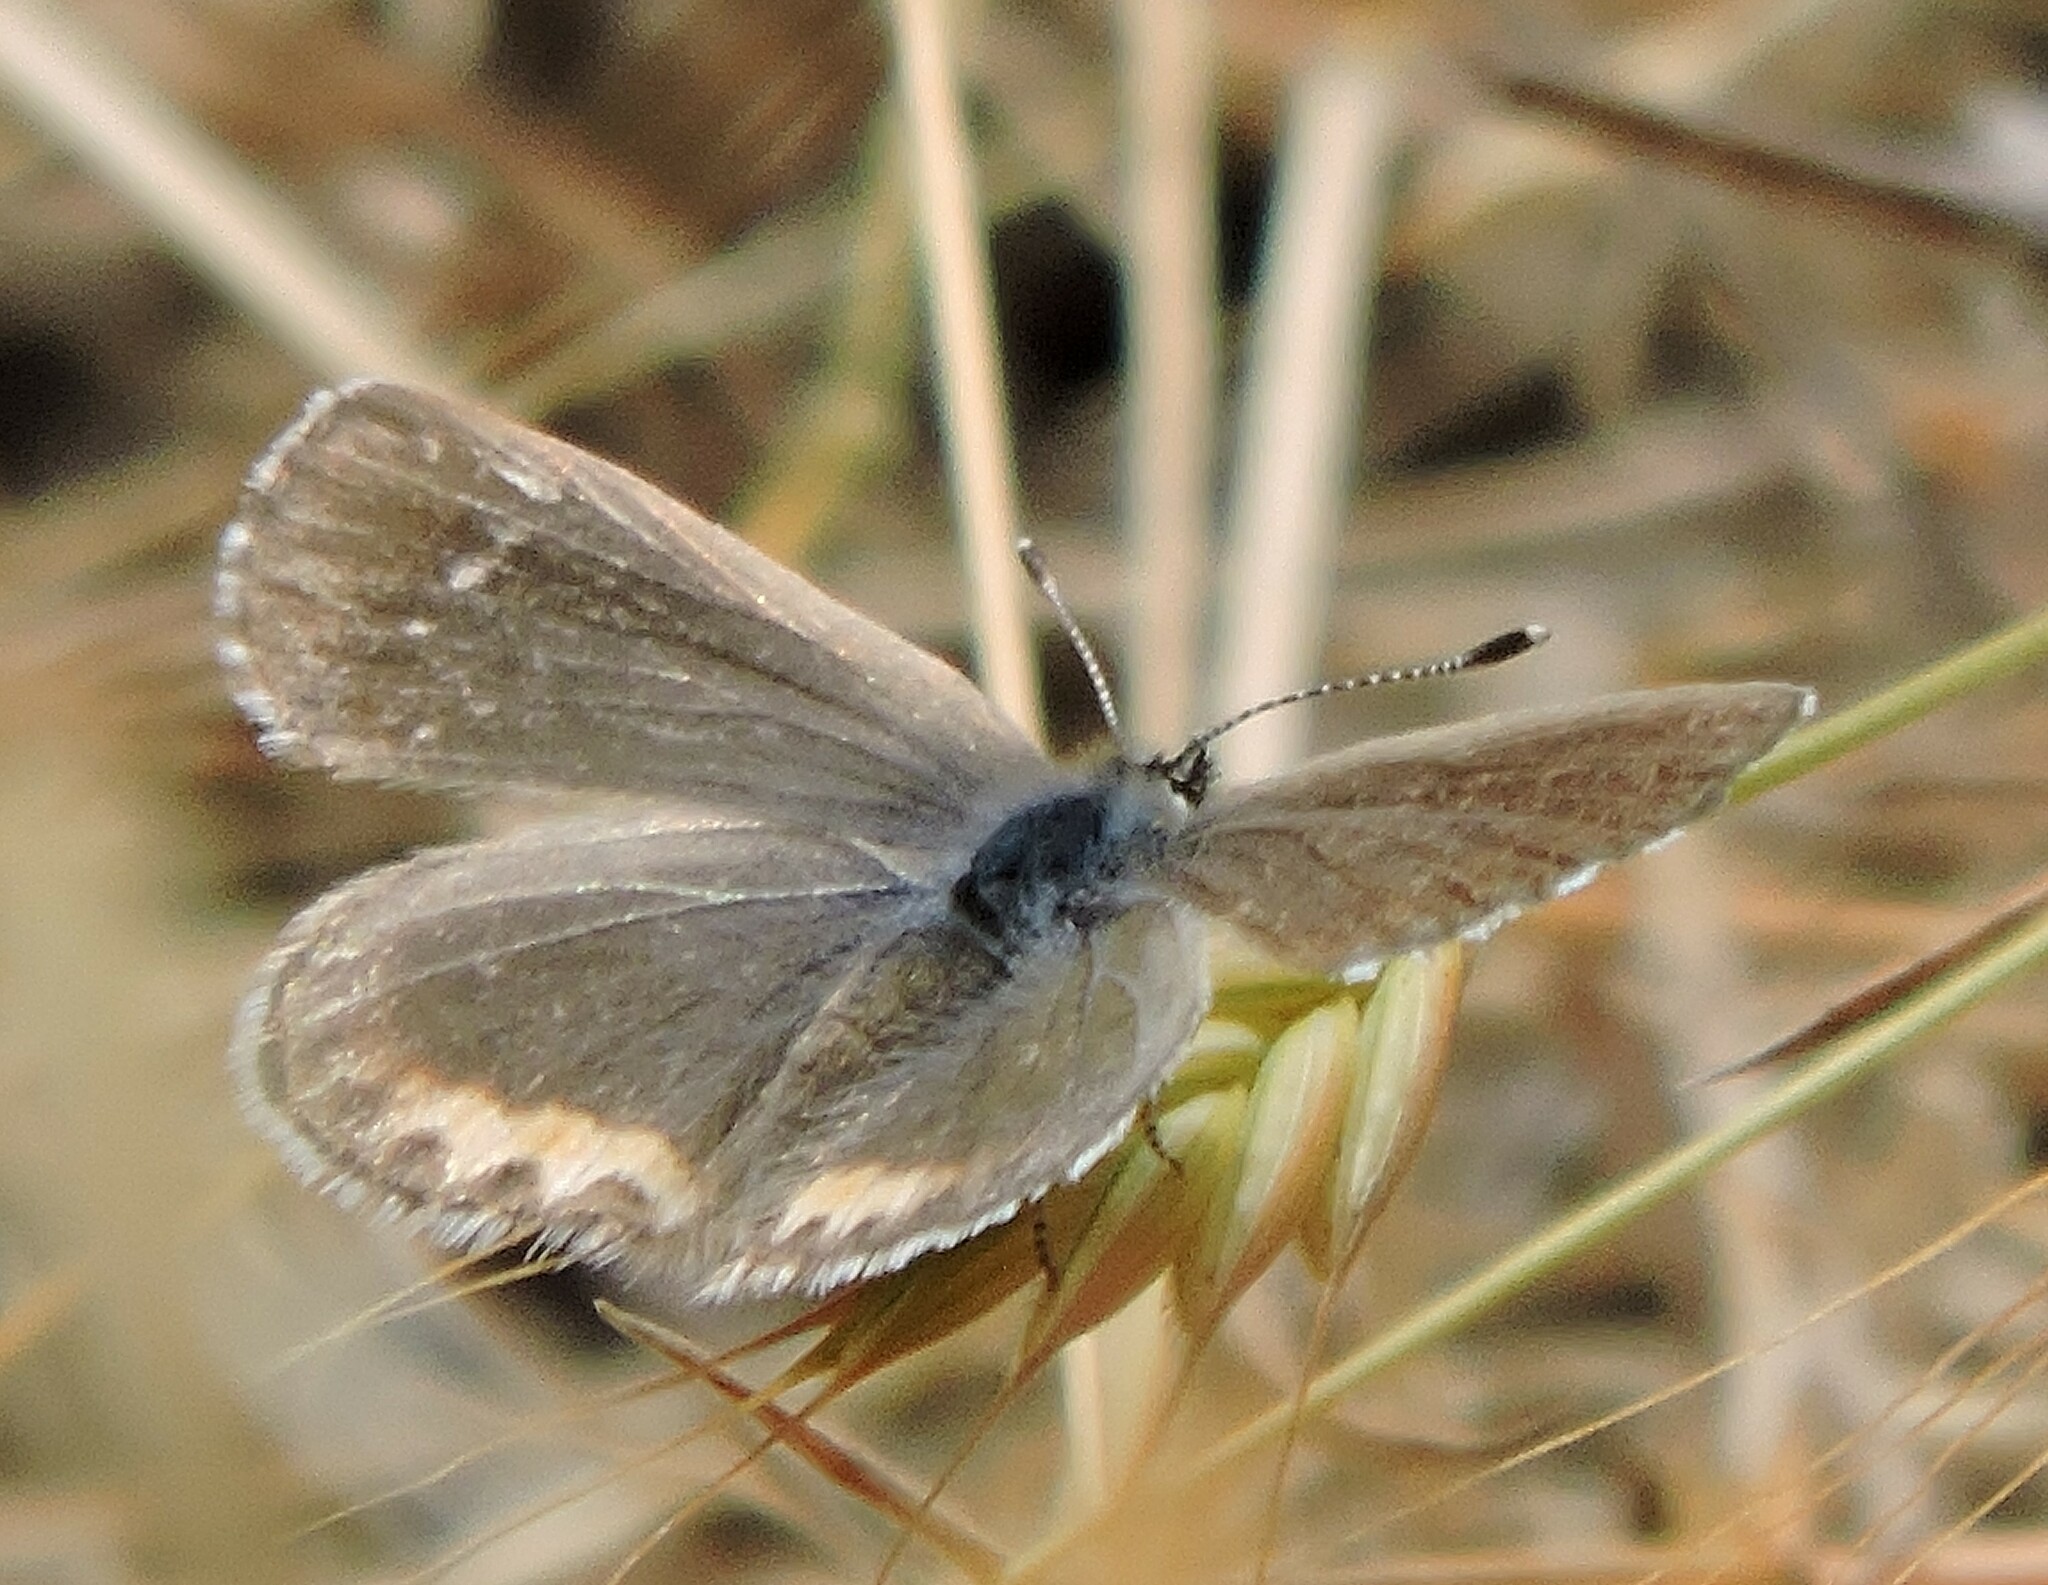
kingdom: Animalia
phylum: Arthropoda
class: Insecta
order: Lepidoptera
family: Lycaenidae
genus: Icaricia
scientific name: Icaricia acmon
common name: Acmon blue
